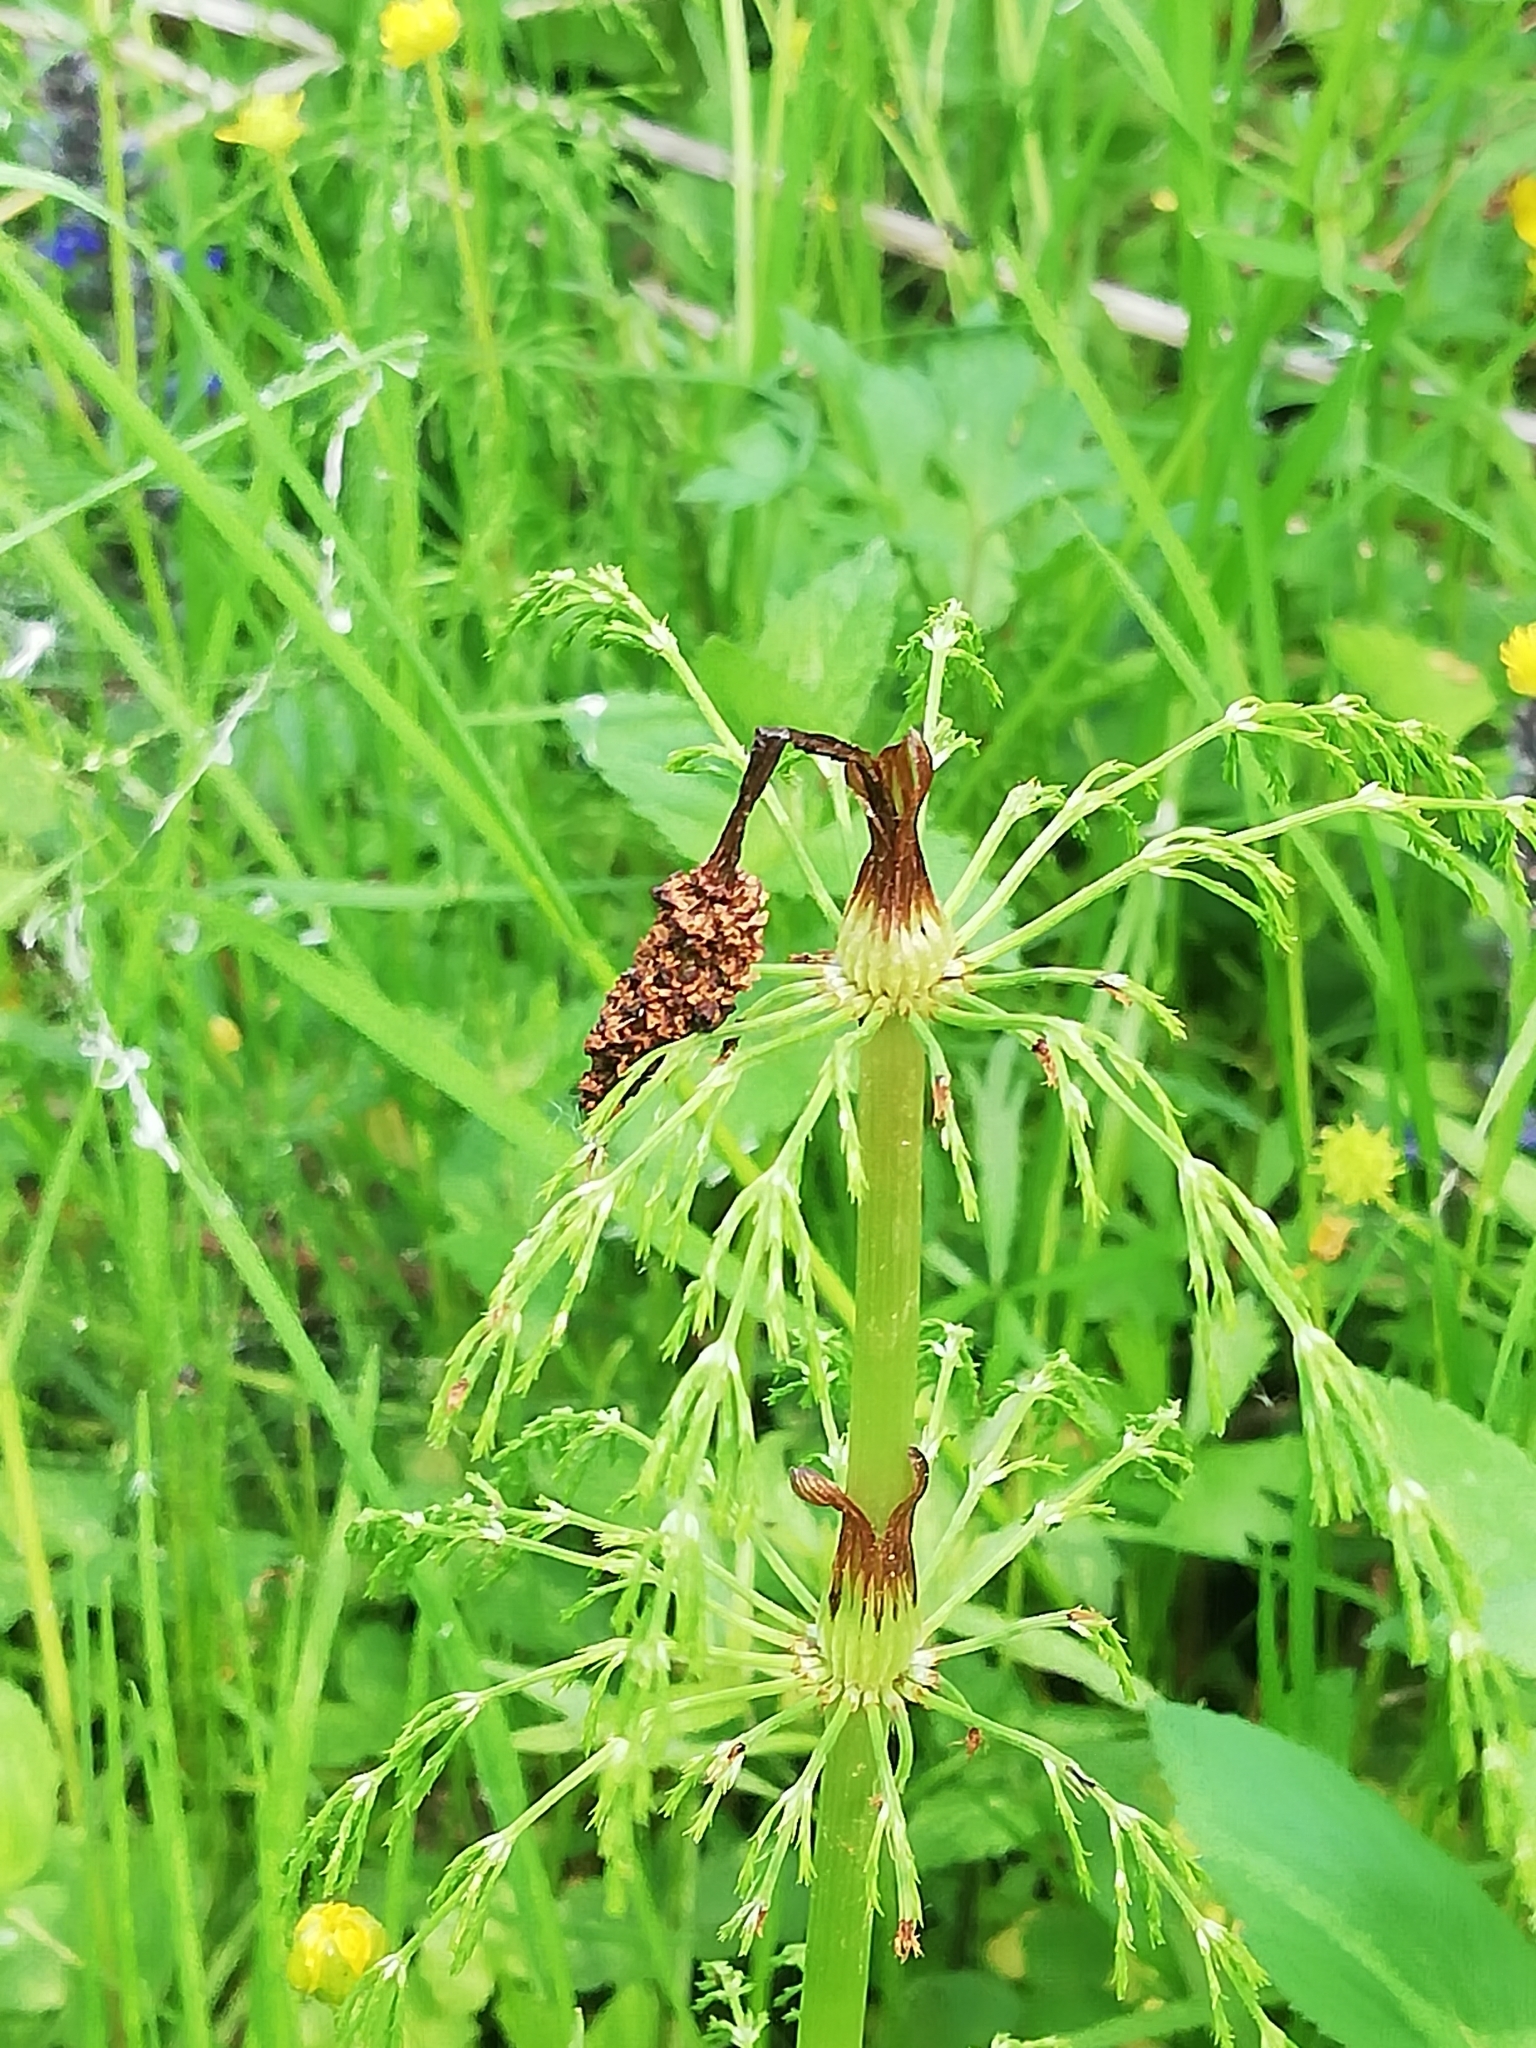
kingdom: Plantae
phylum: Tracheophyta
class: Polypodiopsida
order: Equisetales
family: Equisetaceae
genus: Equisetum
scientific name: Equisetum sylvaticum
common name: Wood horsetail
